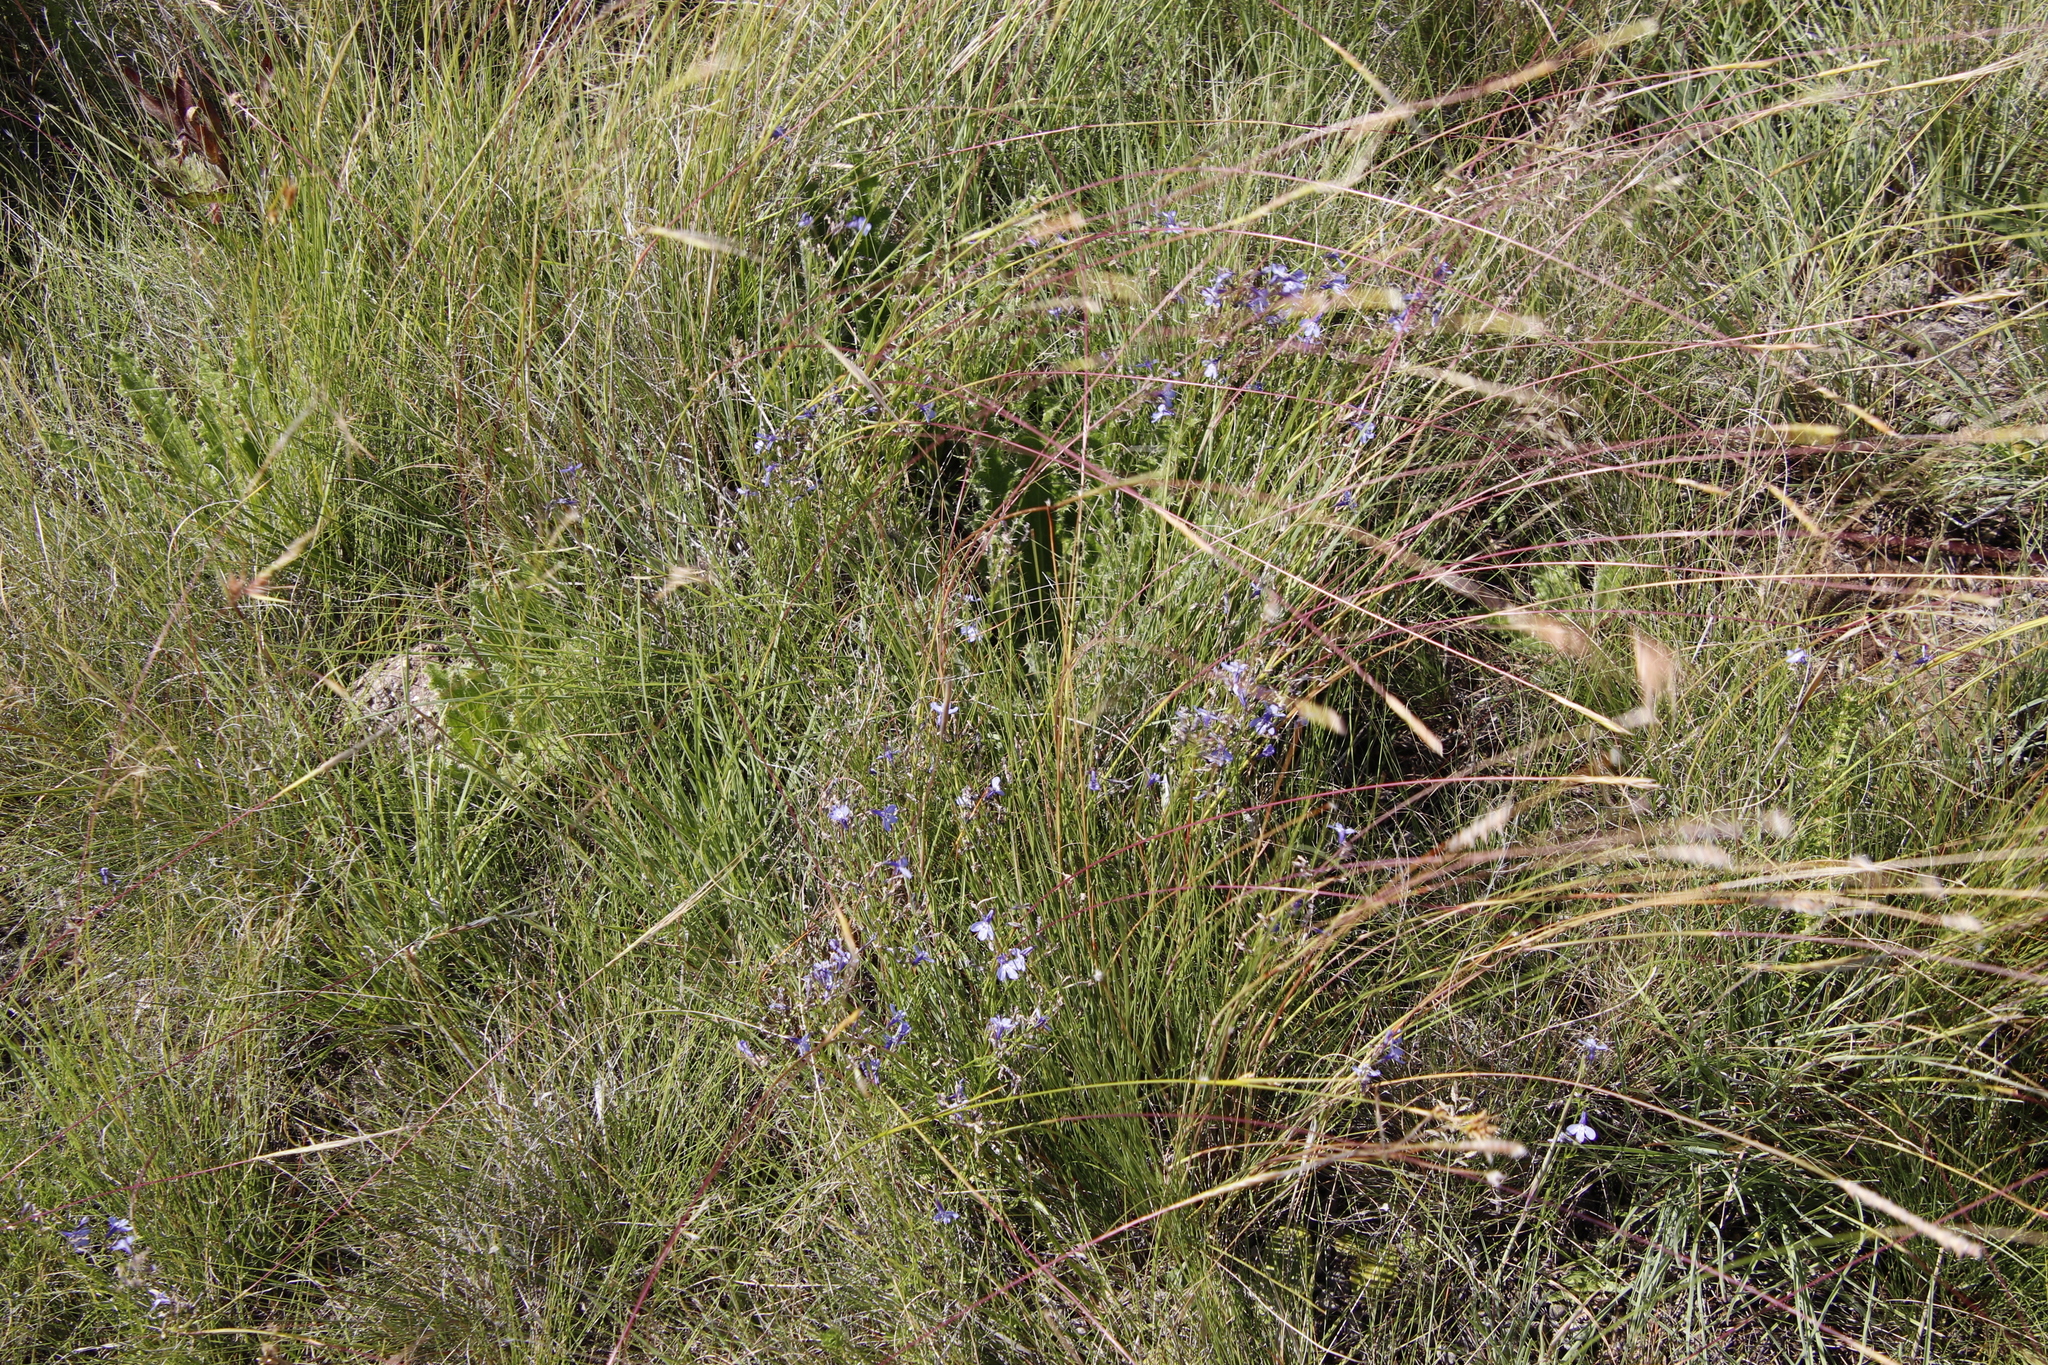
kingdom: Plantae
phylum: Tracheophyta
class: Magnoliopsida
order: Asterales
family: Campanulaceae
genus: Lobelia
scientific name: Lobelia flaccida
